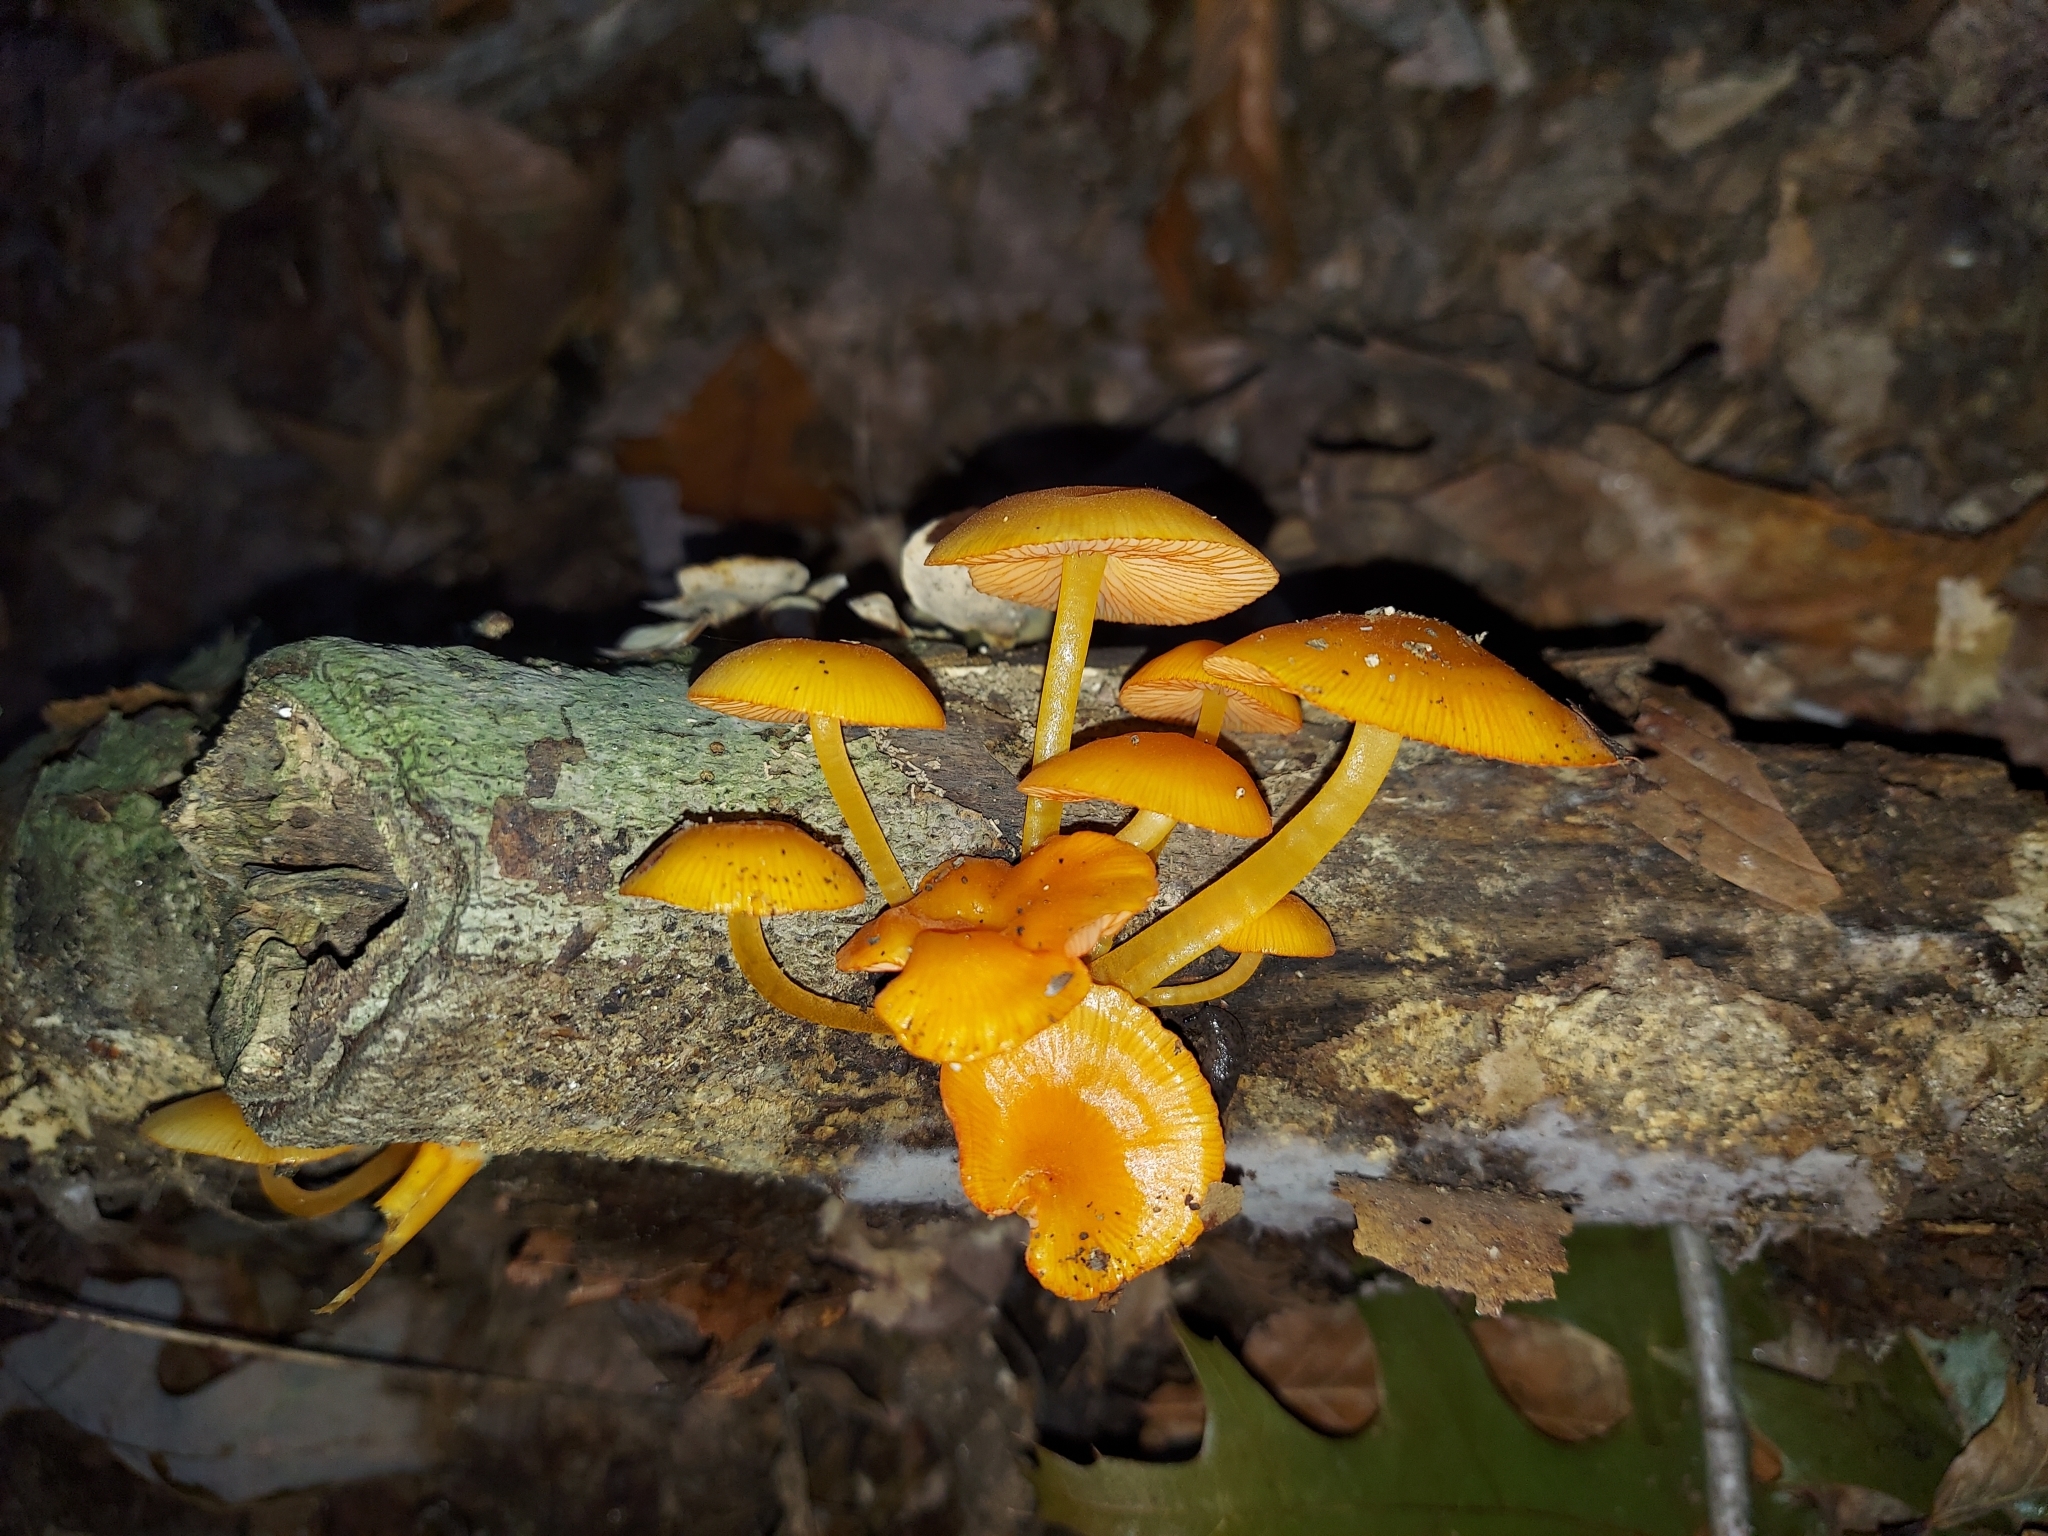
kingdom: Fungi
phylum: Basidiomycota
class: Agaricomycetes
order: Agaricales
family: Mycenaceae
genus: Mycena
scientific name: Mycena leaiana
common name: Orange mycena
